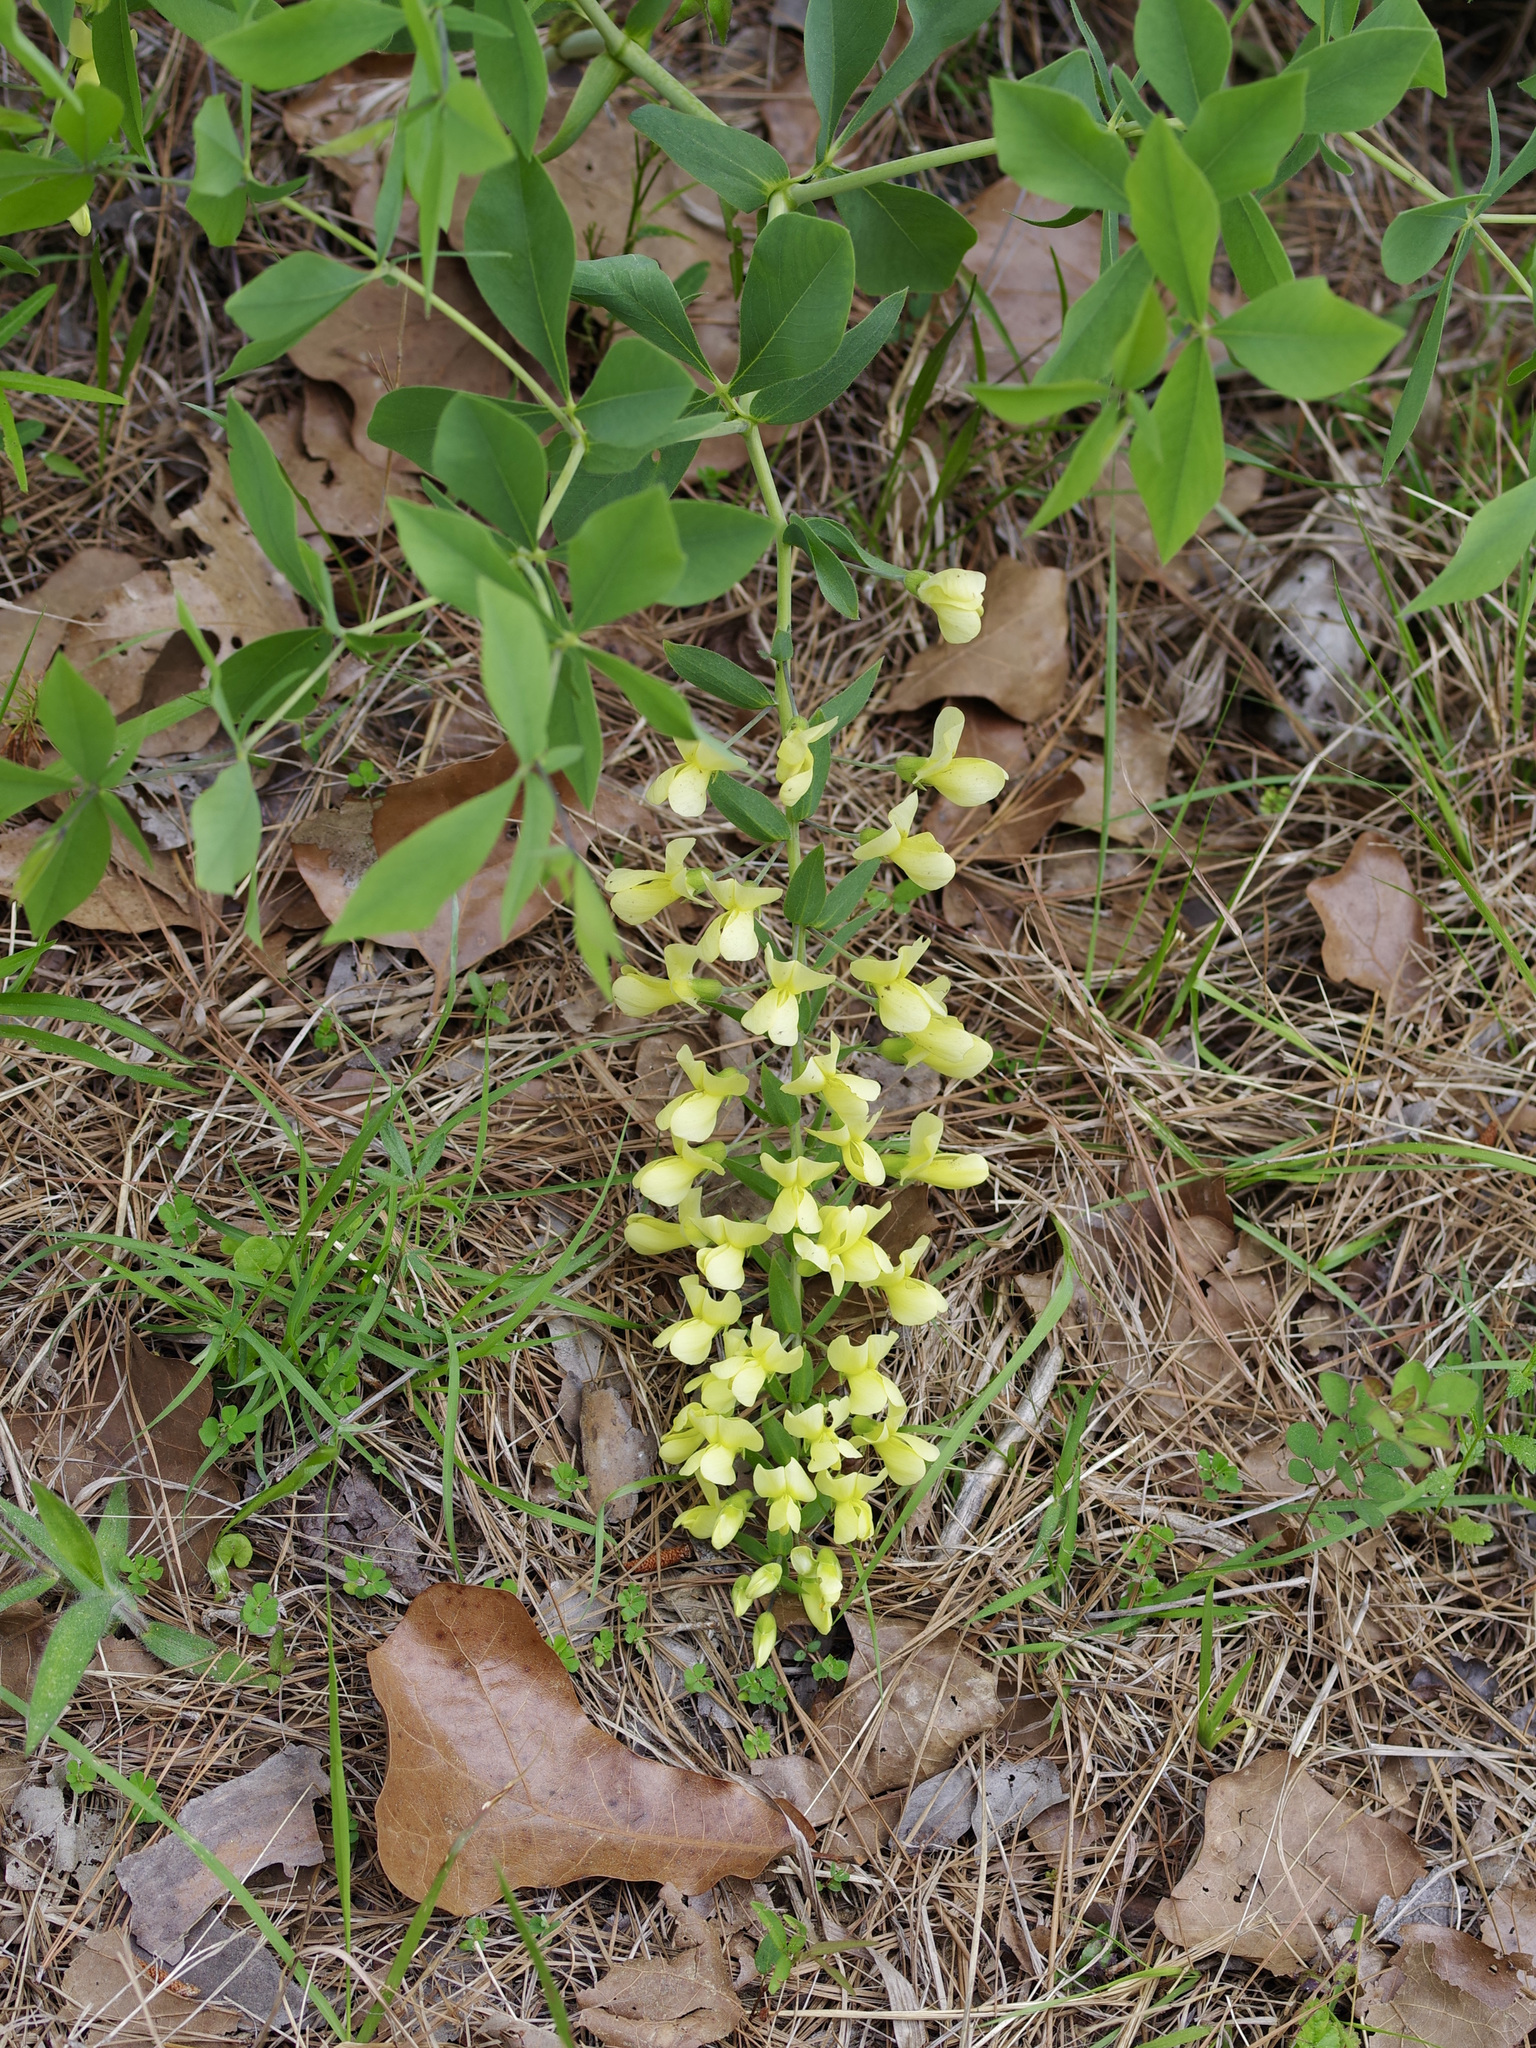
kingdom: Plantae
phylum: Tracheophyta
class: Magnoliopsida
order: Fabales
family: Fabaceae
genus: Baptisia
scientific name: Baptisia bracteata
